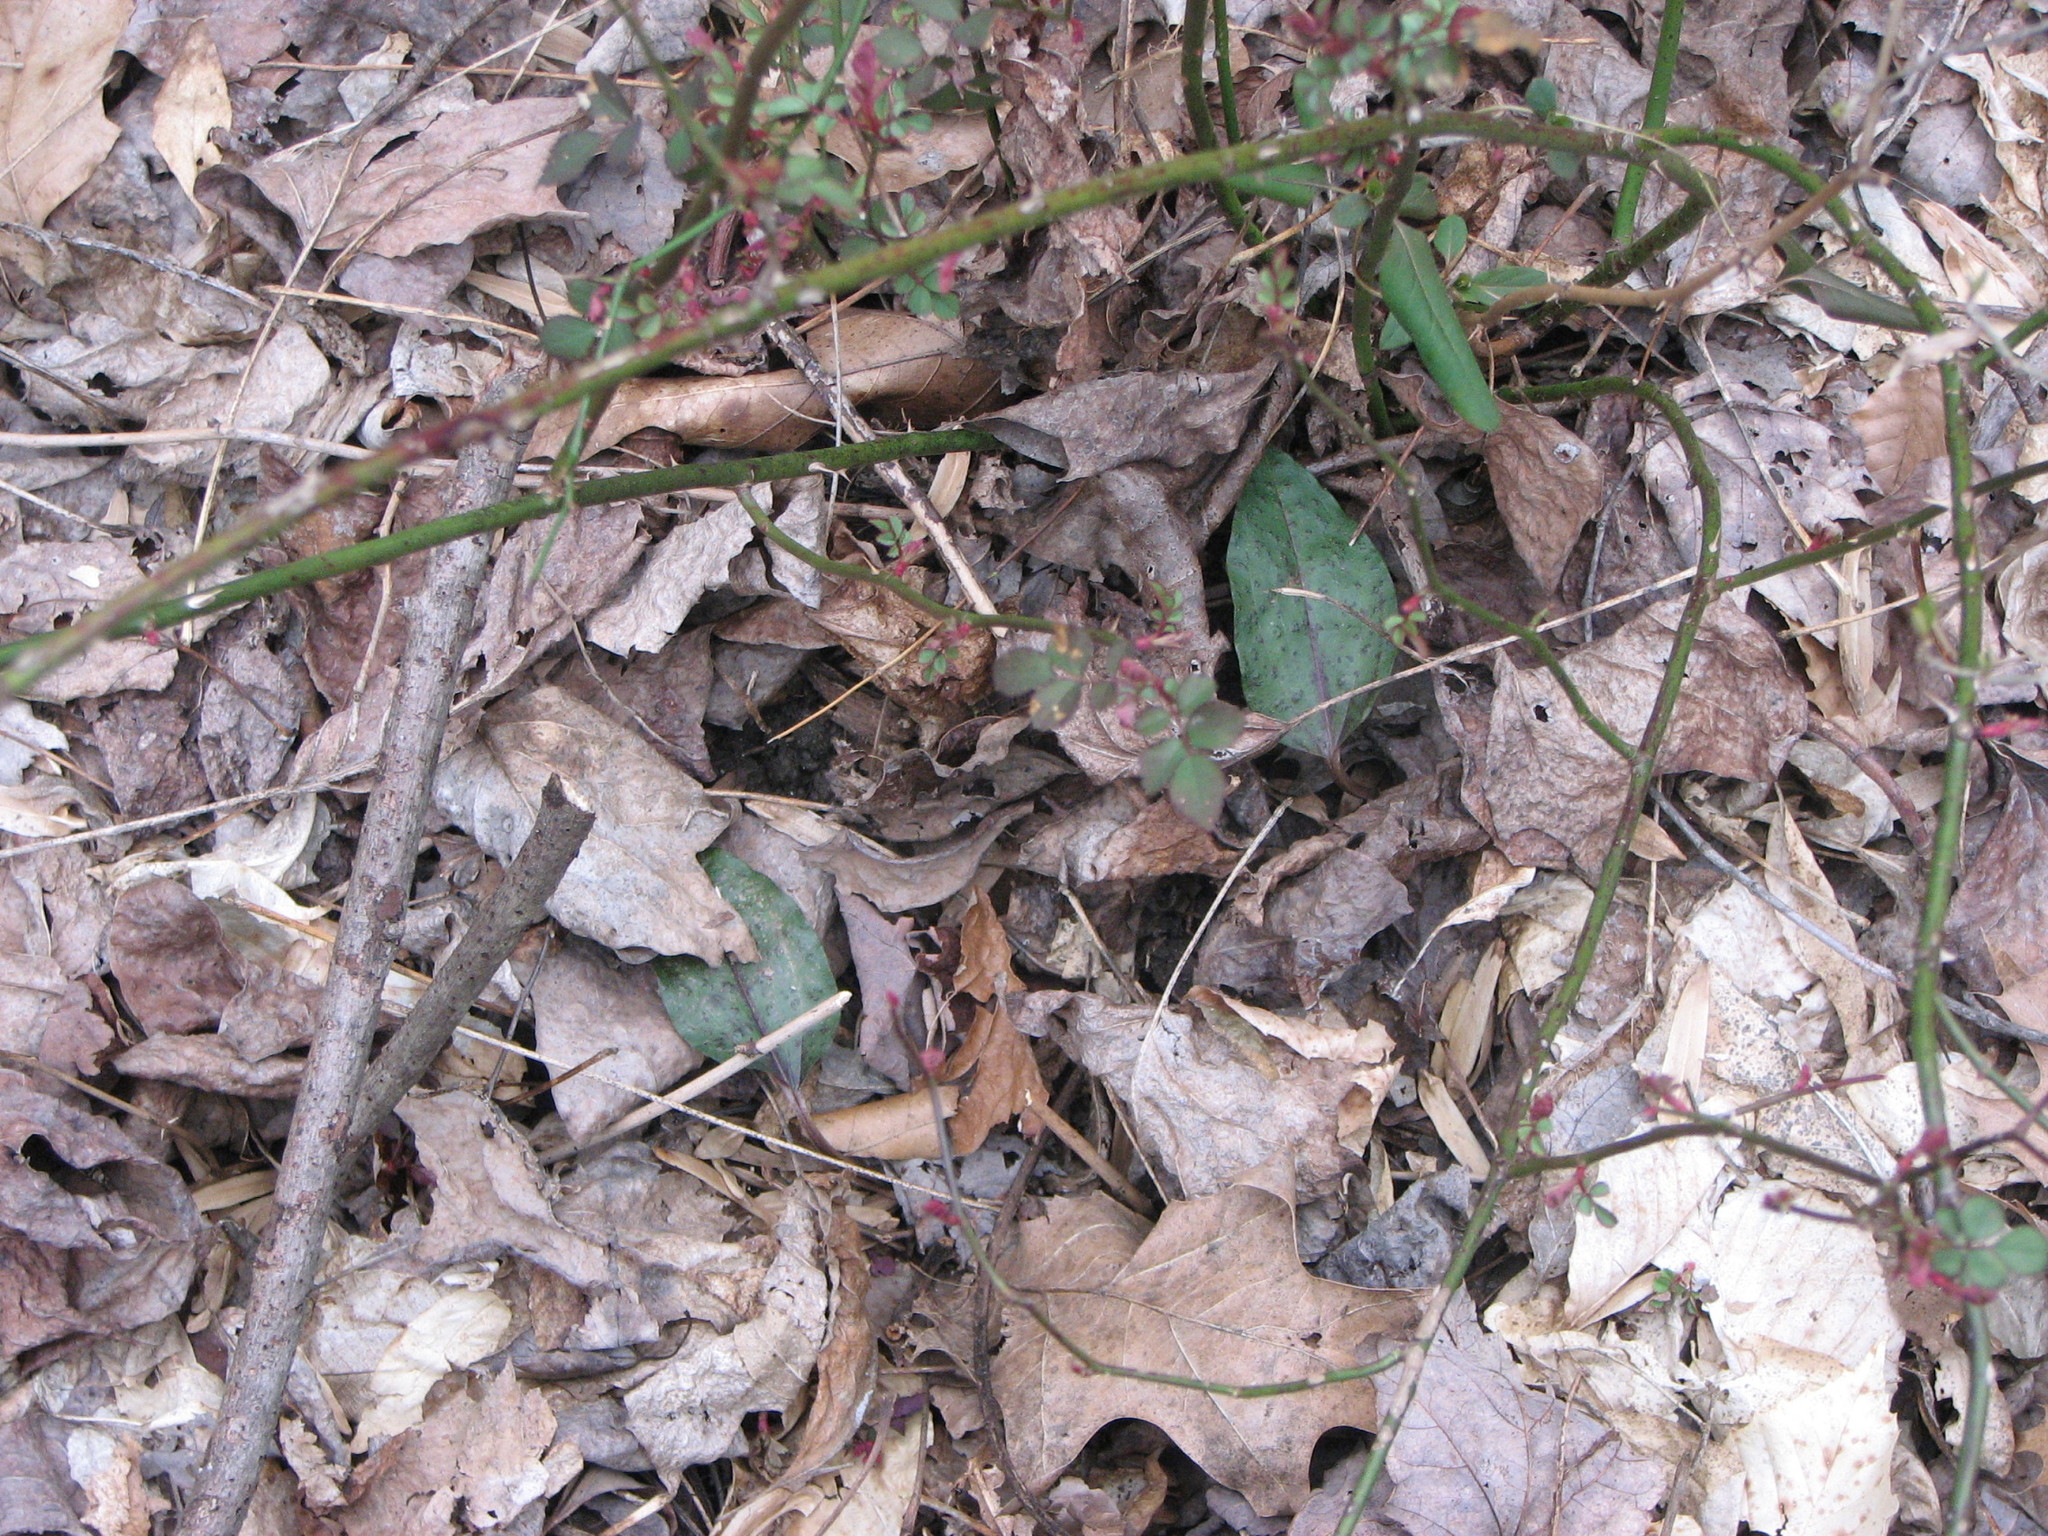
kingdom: Plantae
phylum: Tracheophyta
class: Liliopsida
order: Asparagales
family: Orchidaceae
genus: Tipularia
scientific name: Tipularia discolor
